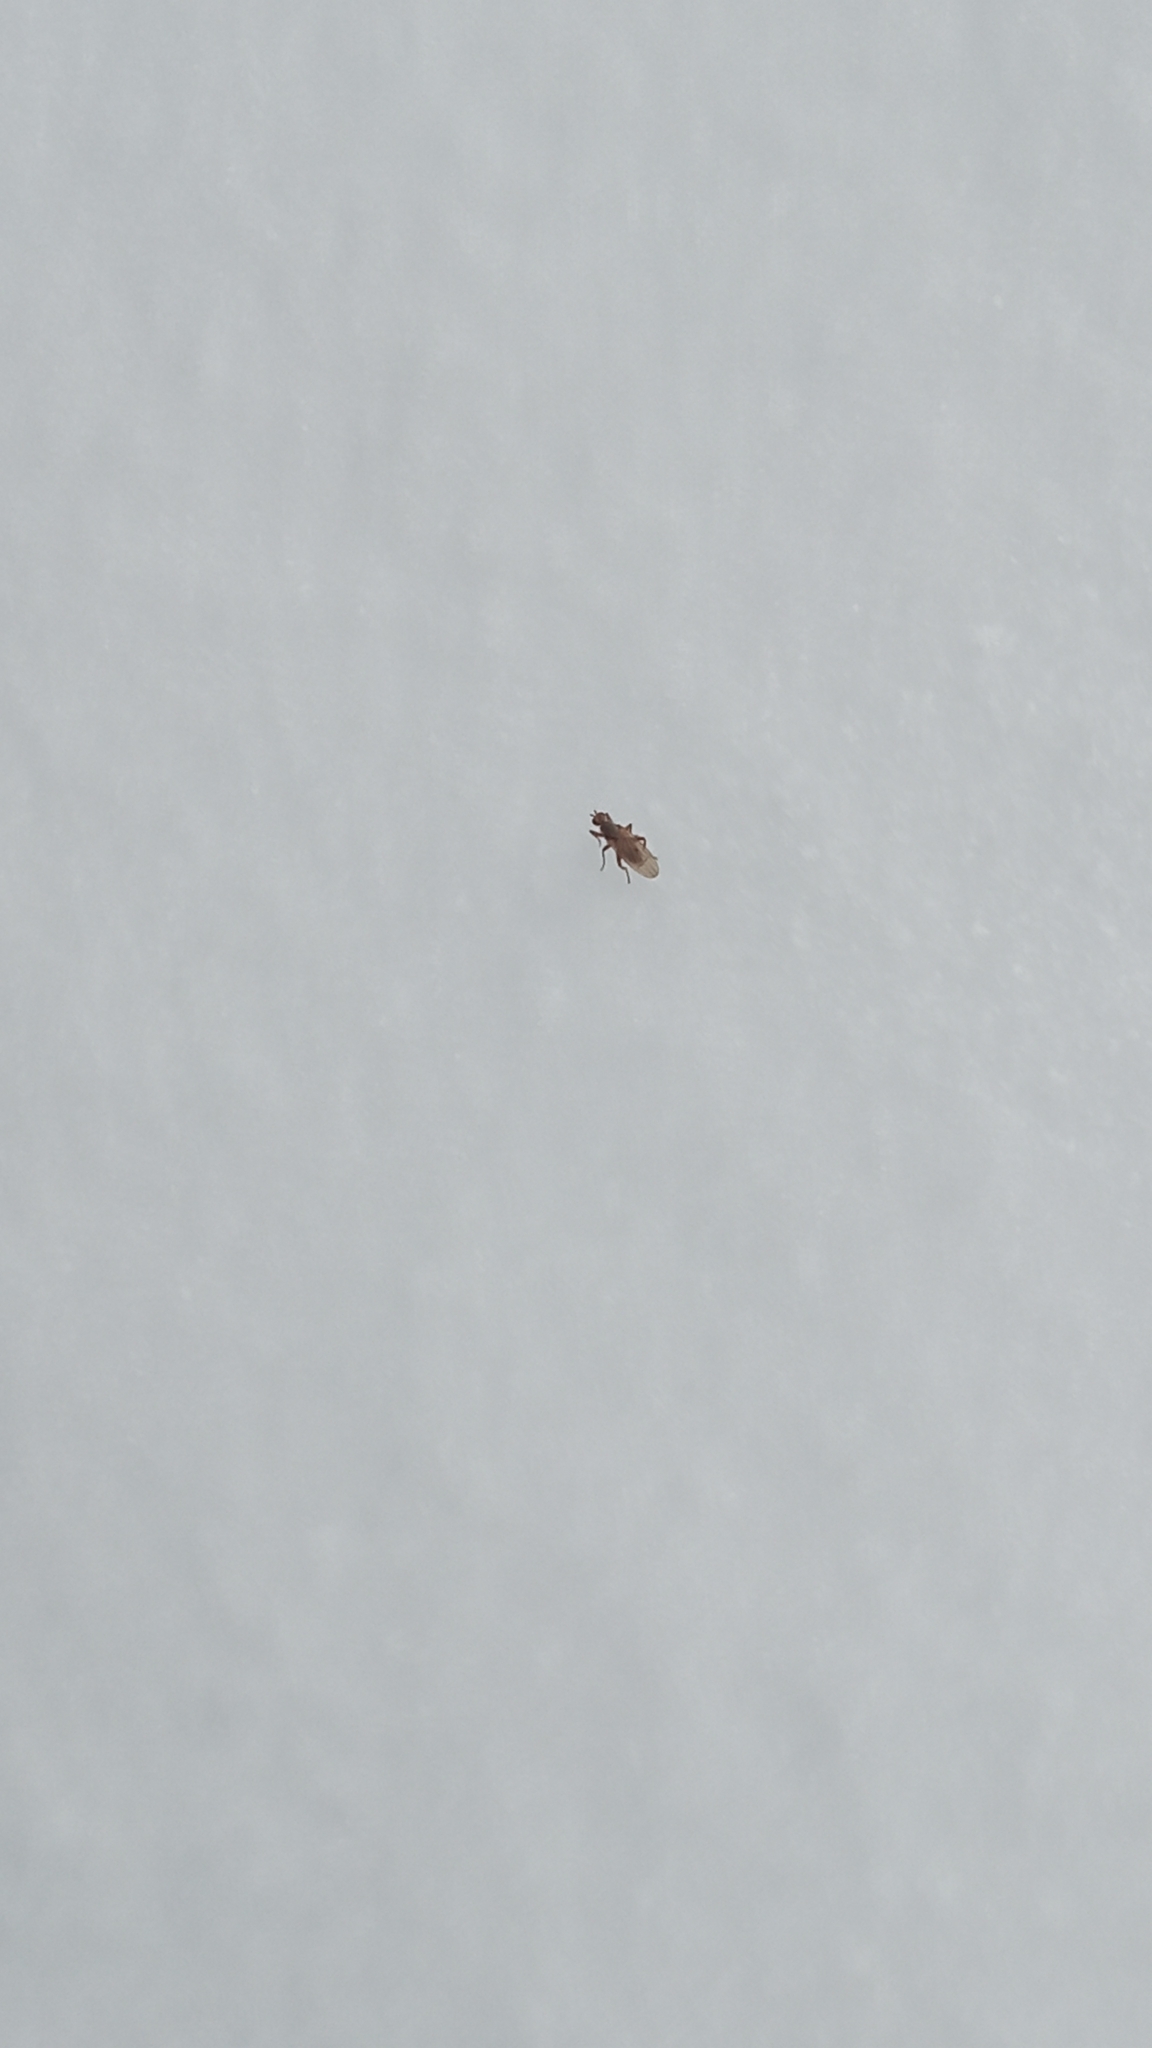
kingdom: Animalia
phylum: Arthropoda
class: Insecta
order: Diptera
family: Heleomyzidae
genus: Scoliocentra
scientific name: Scoliocentra nigrinervis
